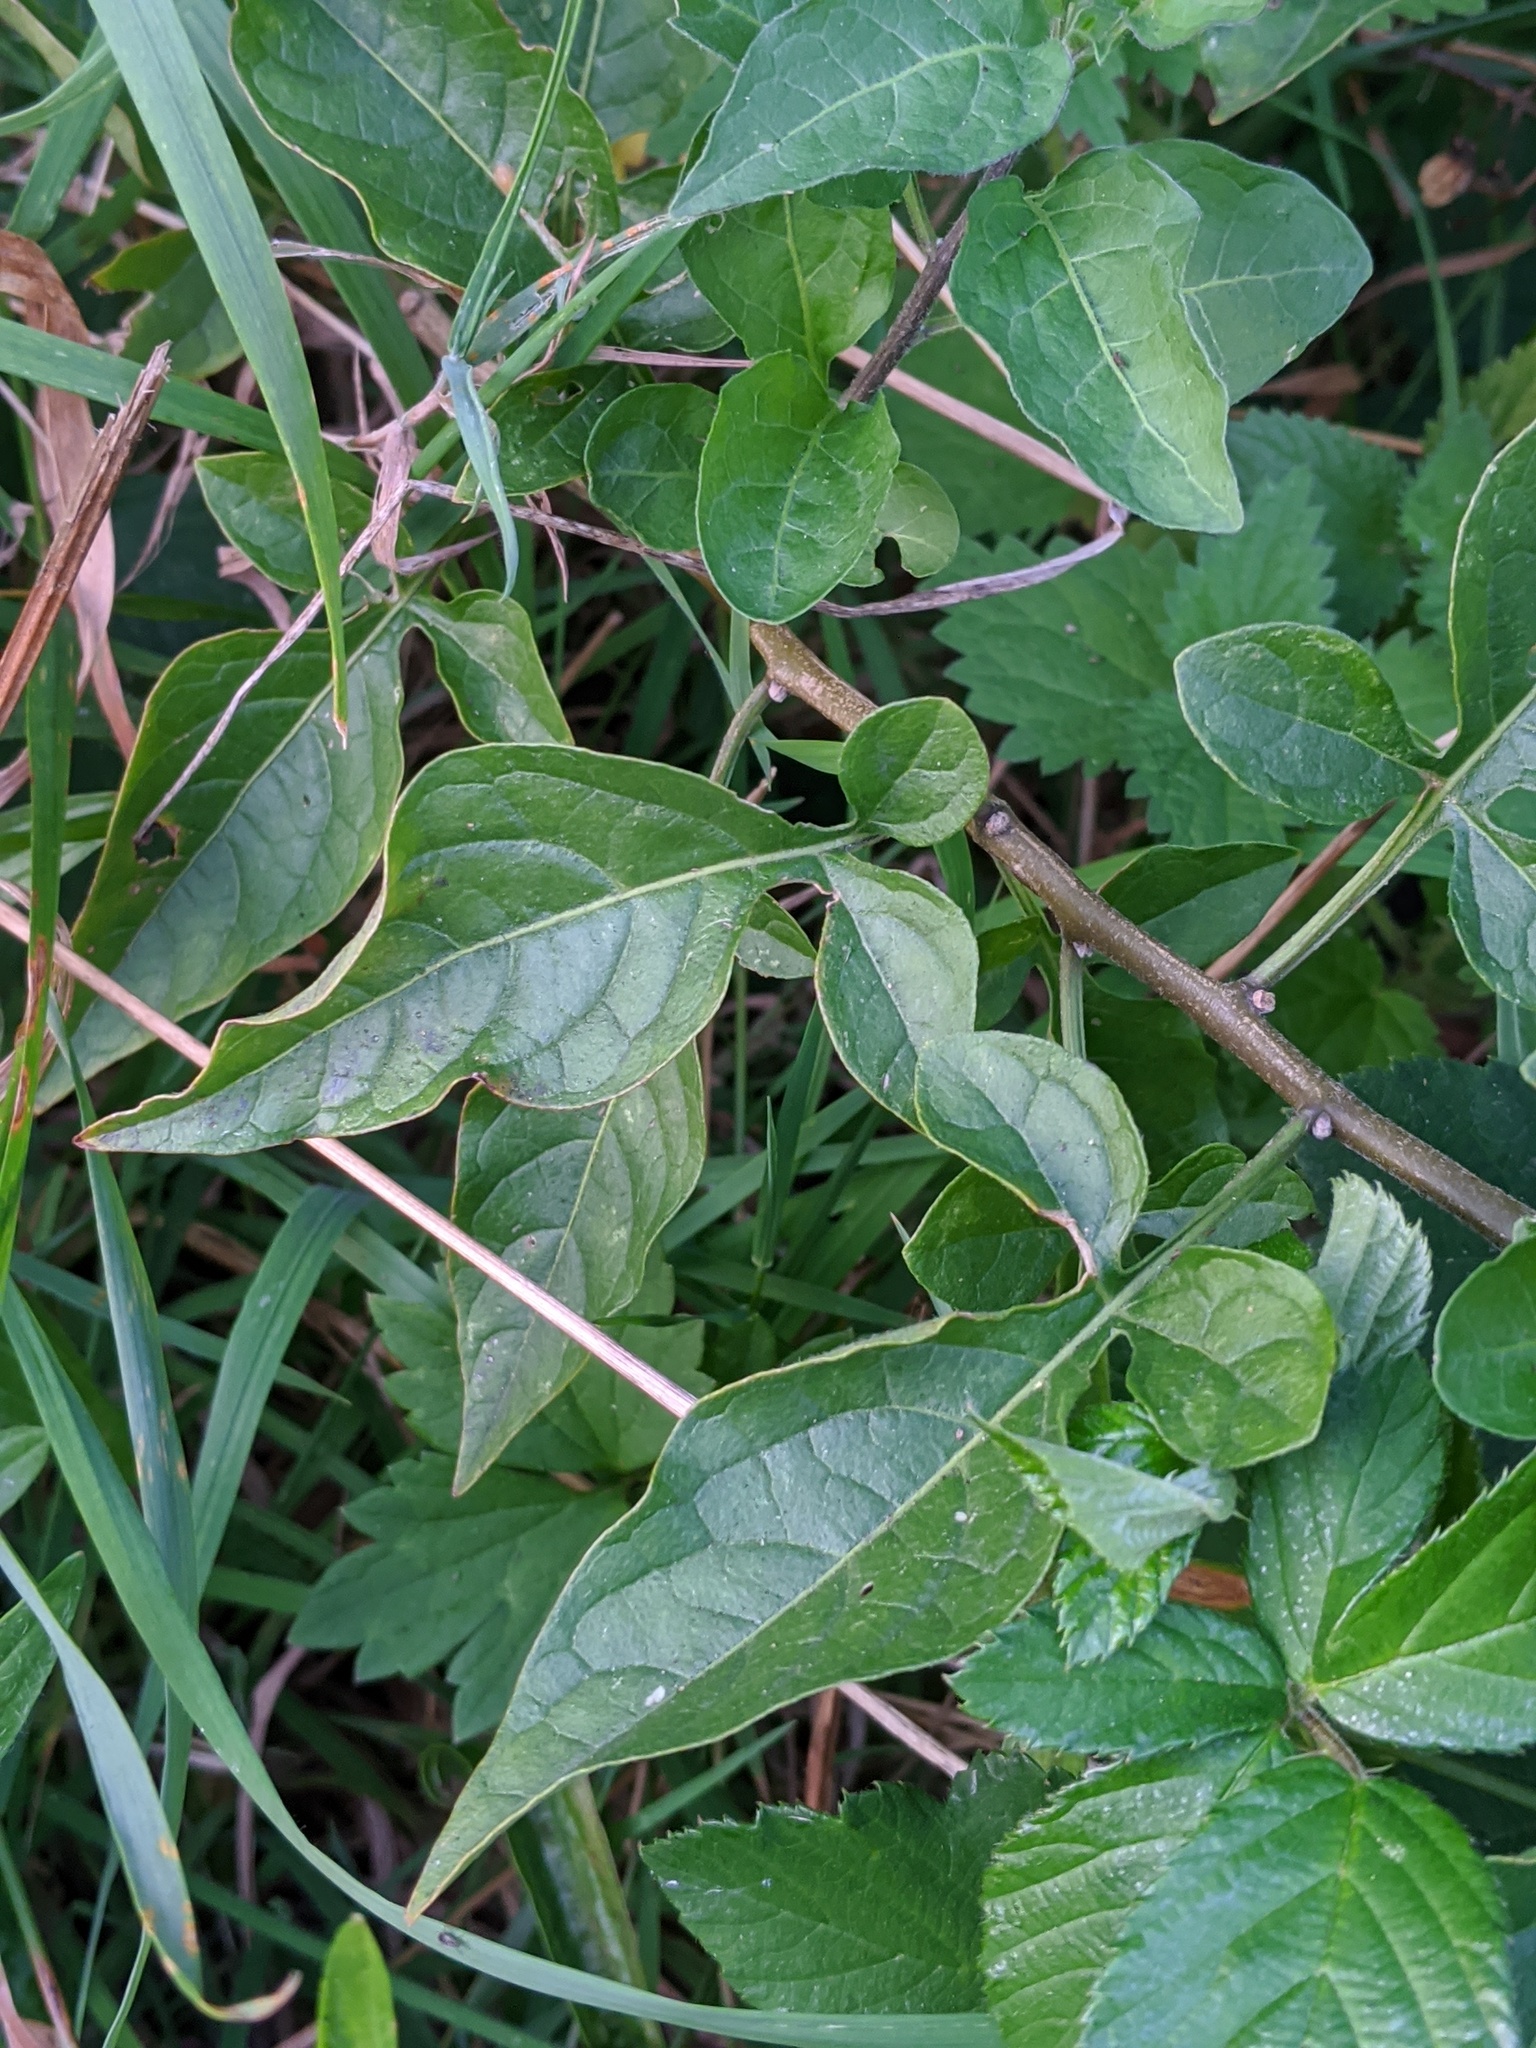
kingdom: Plantae
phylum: Tracheophyta
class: Magnoliopsida
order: Solanales
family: Solanaceae
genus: Solanum
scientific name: Solanum dulcamara
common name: Climbing nightshade
